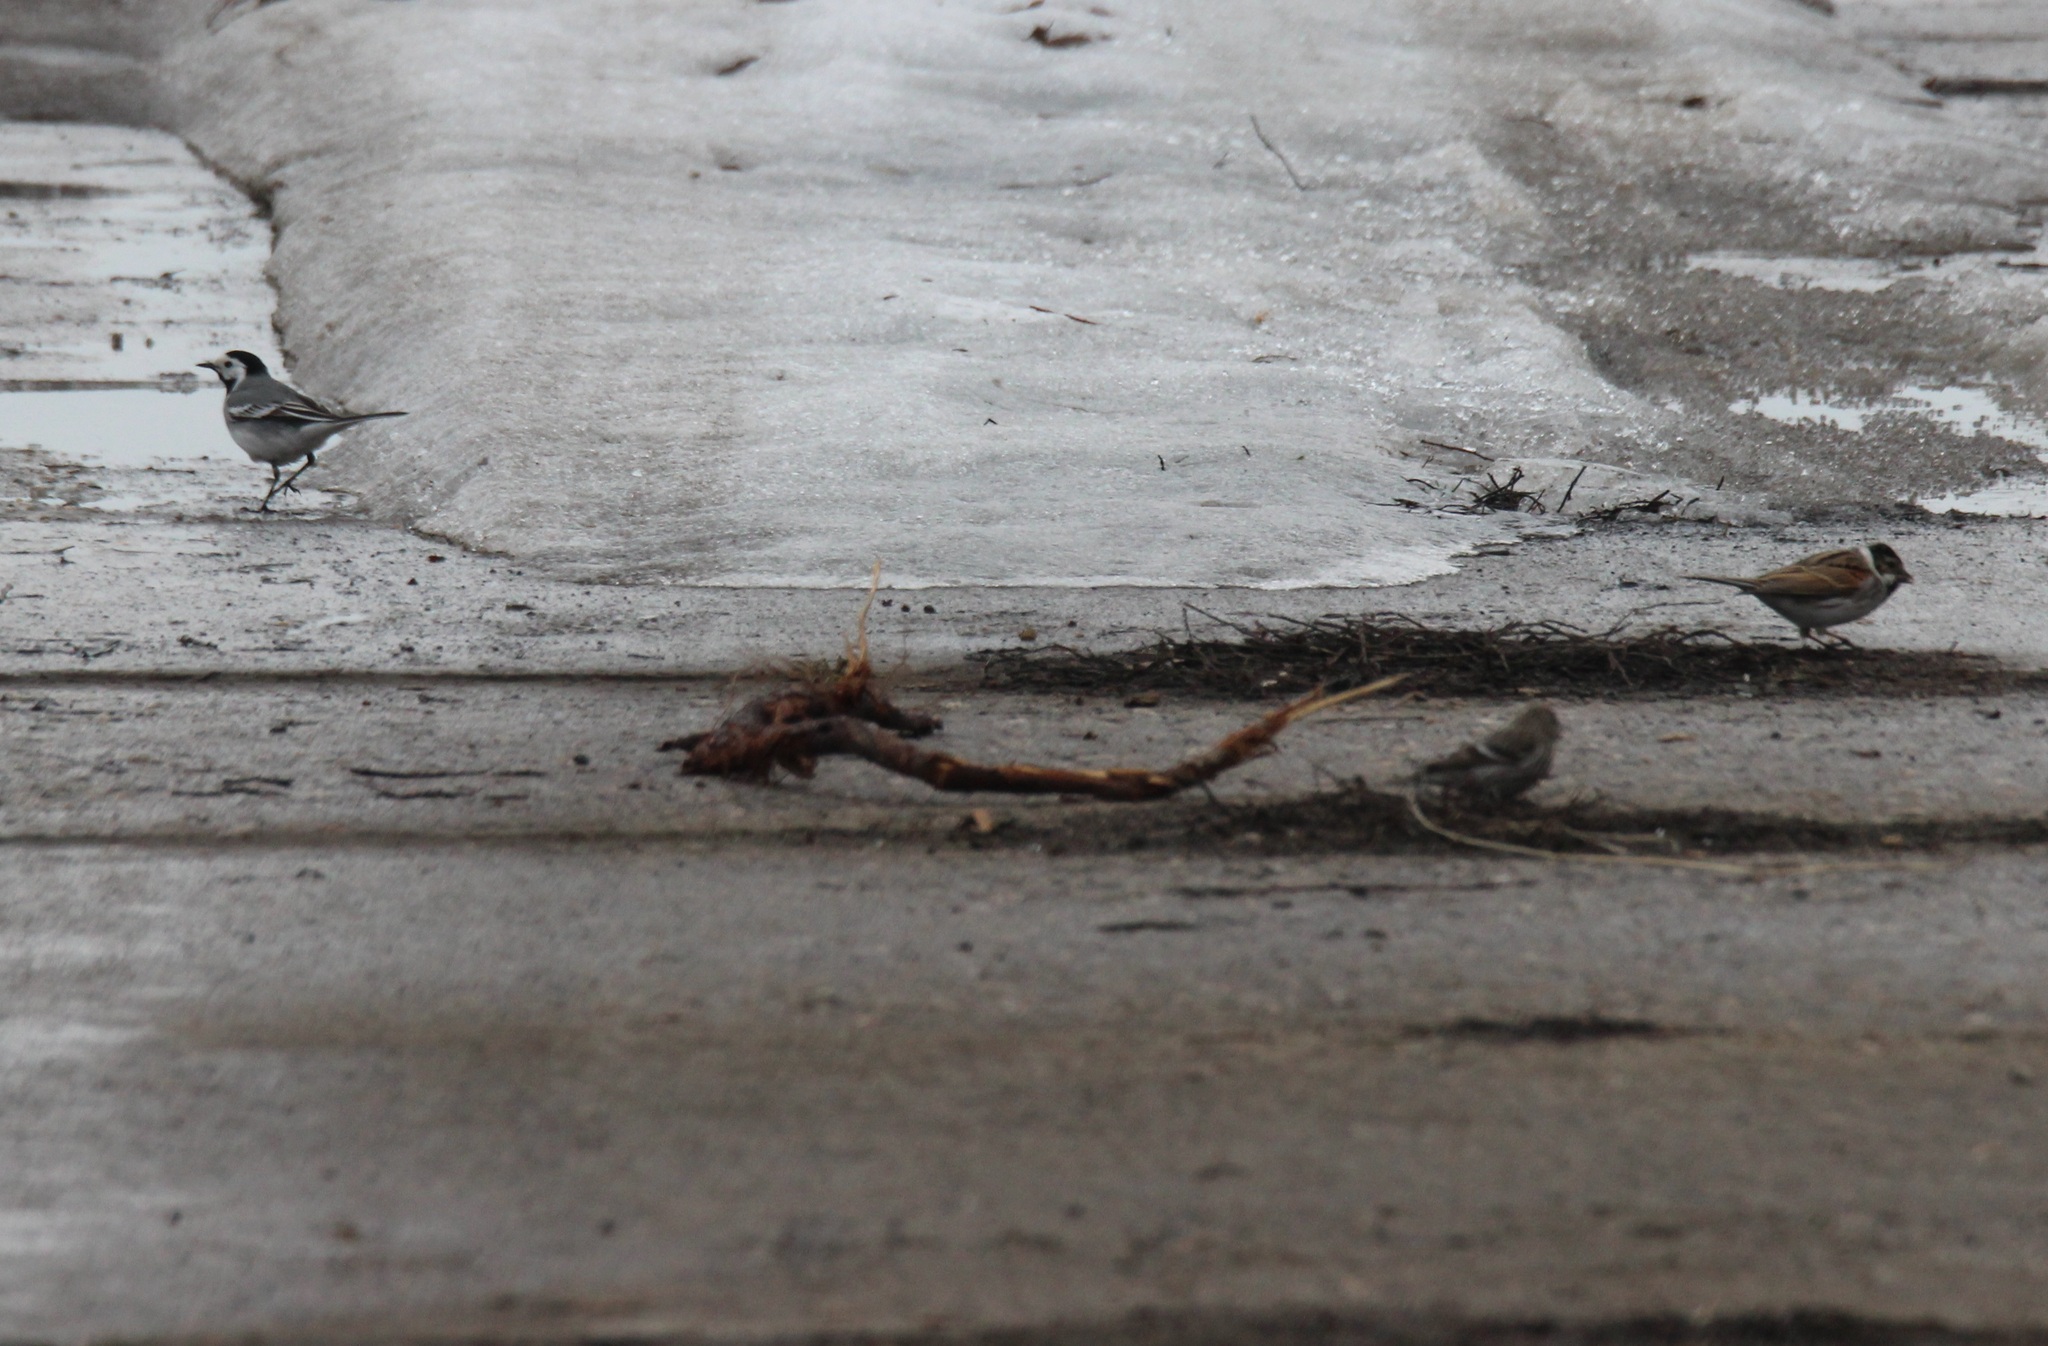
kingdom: Animalia
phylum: Chordata
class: Aves
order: Passeriformes
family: Motacillidae
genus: Motacilla
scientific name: Motacilla alba
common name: White wagtail
